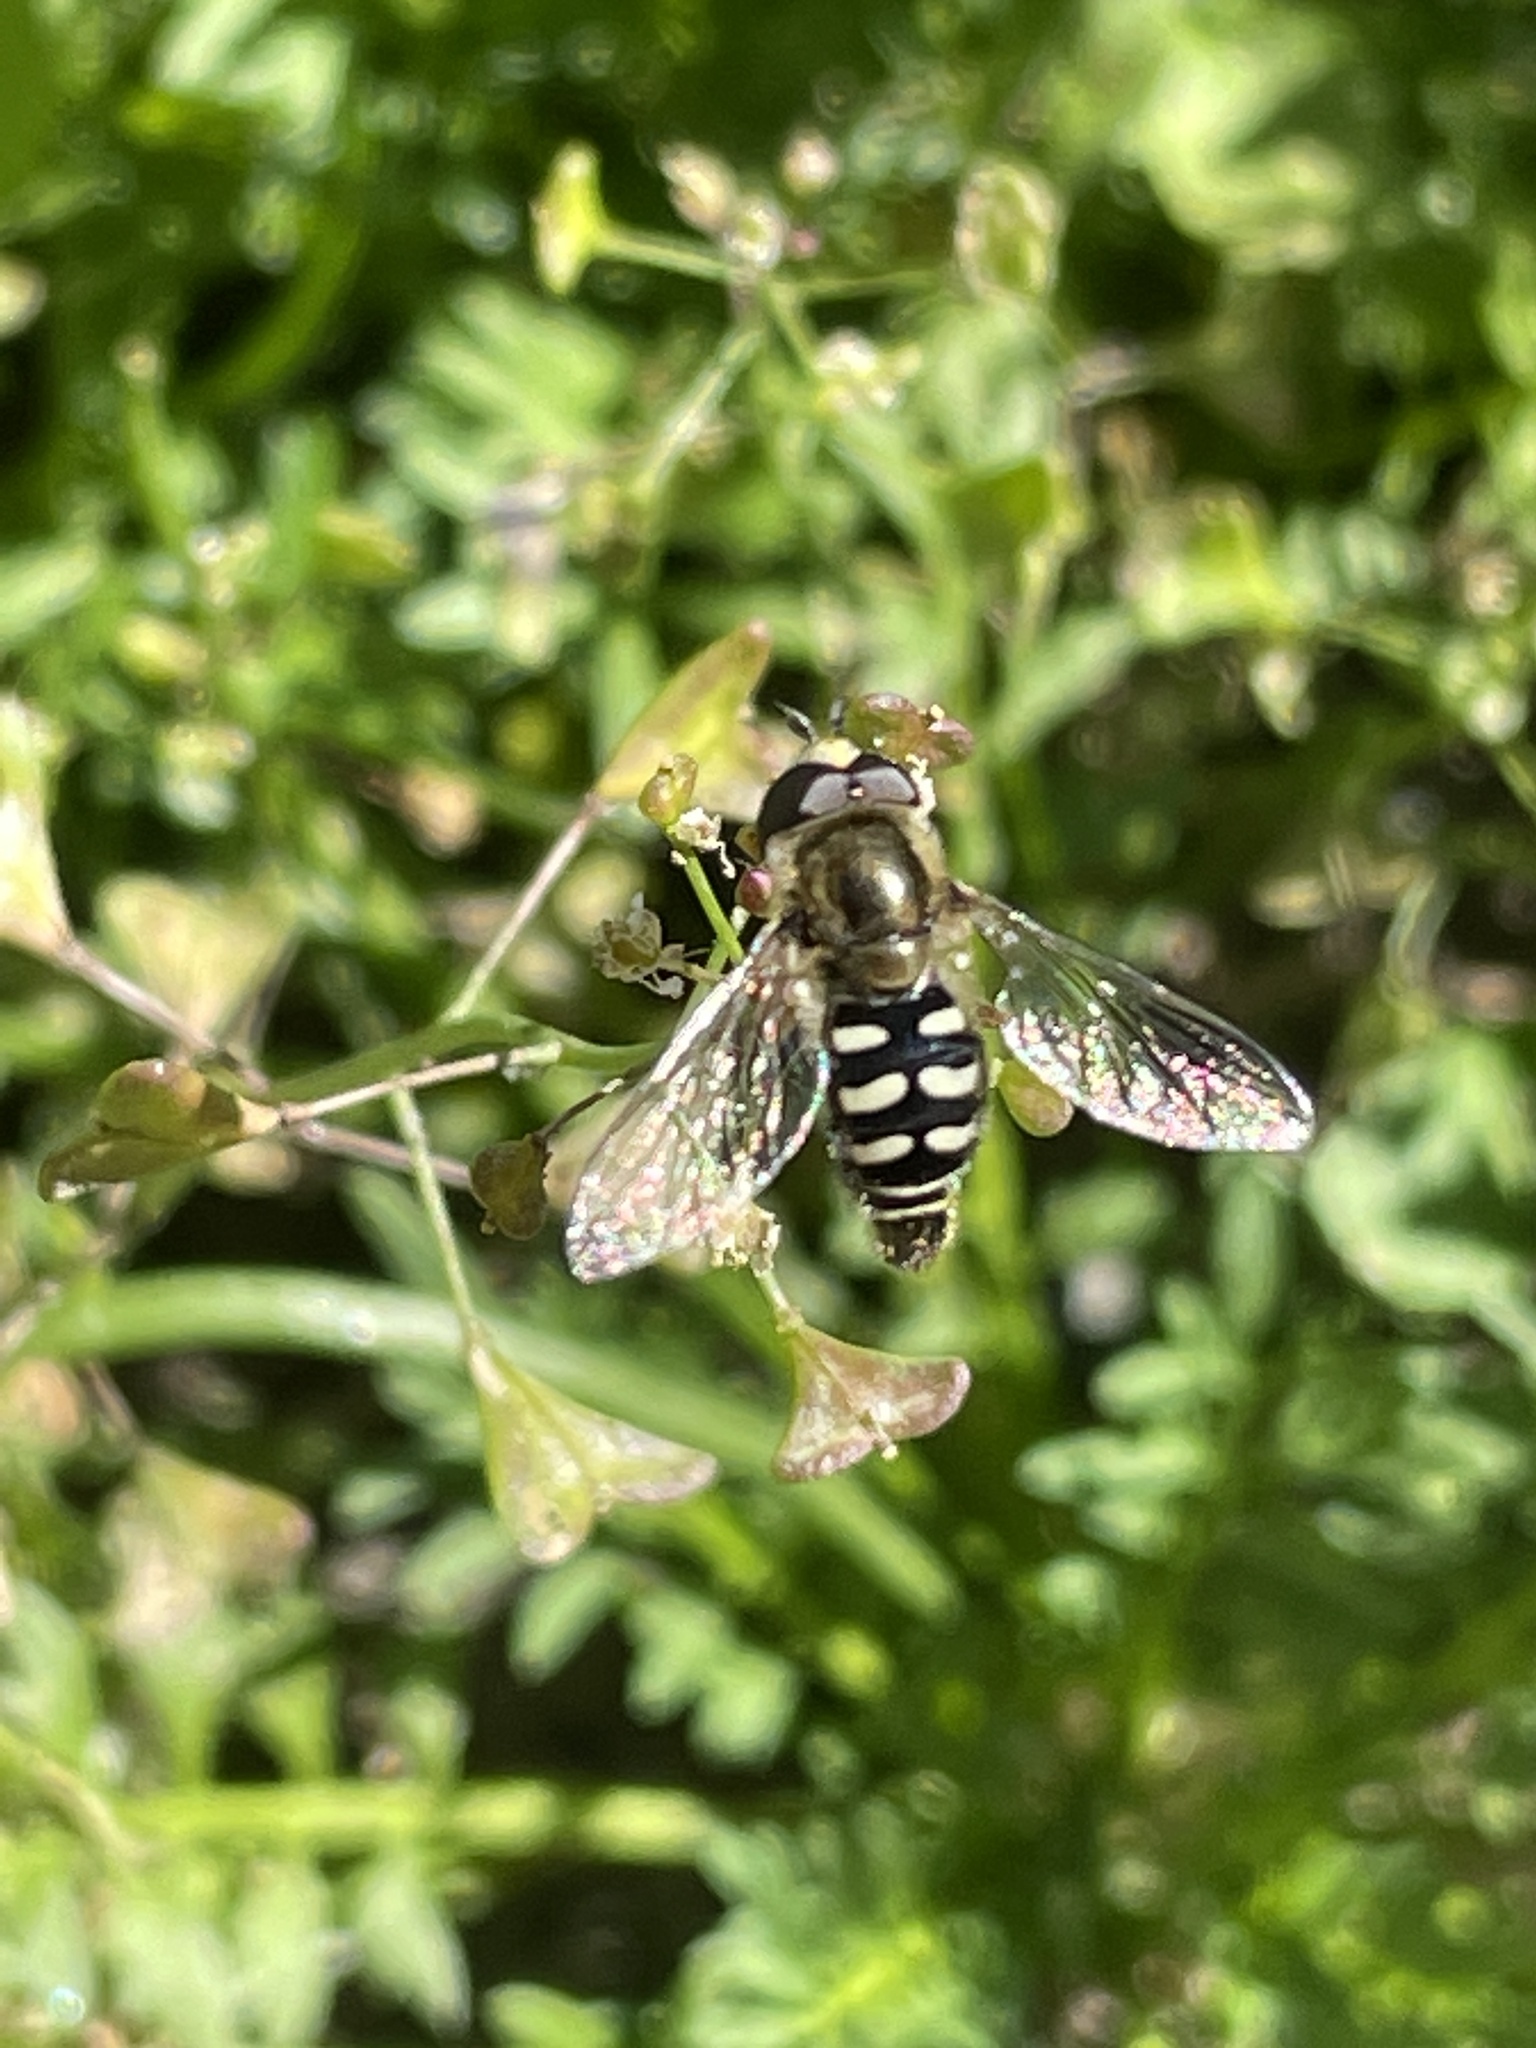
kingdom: Animalia
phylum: Arthropoda
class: Insecta
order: Diptera
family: Syrphidae
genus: Eupeodes
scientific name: Eupeodes volucris
